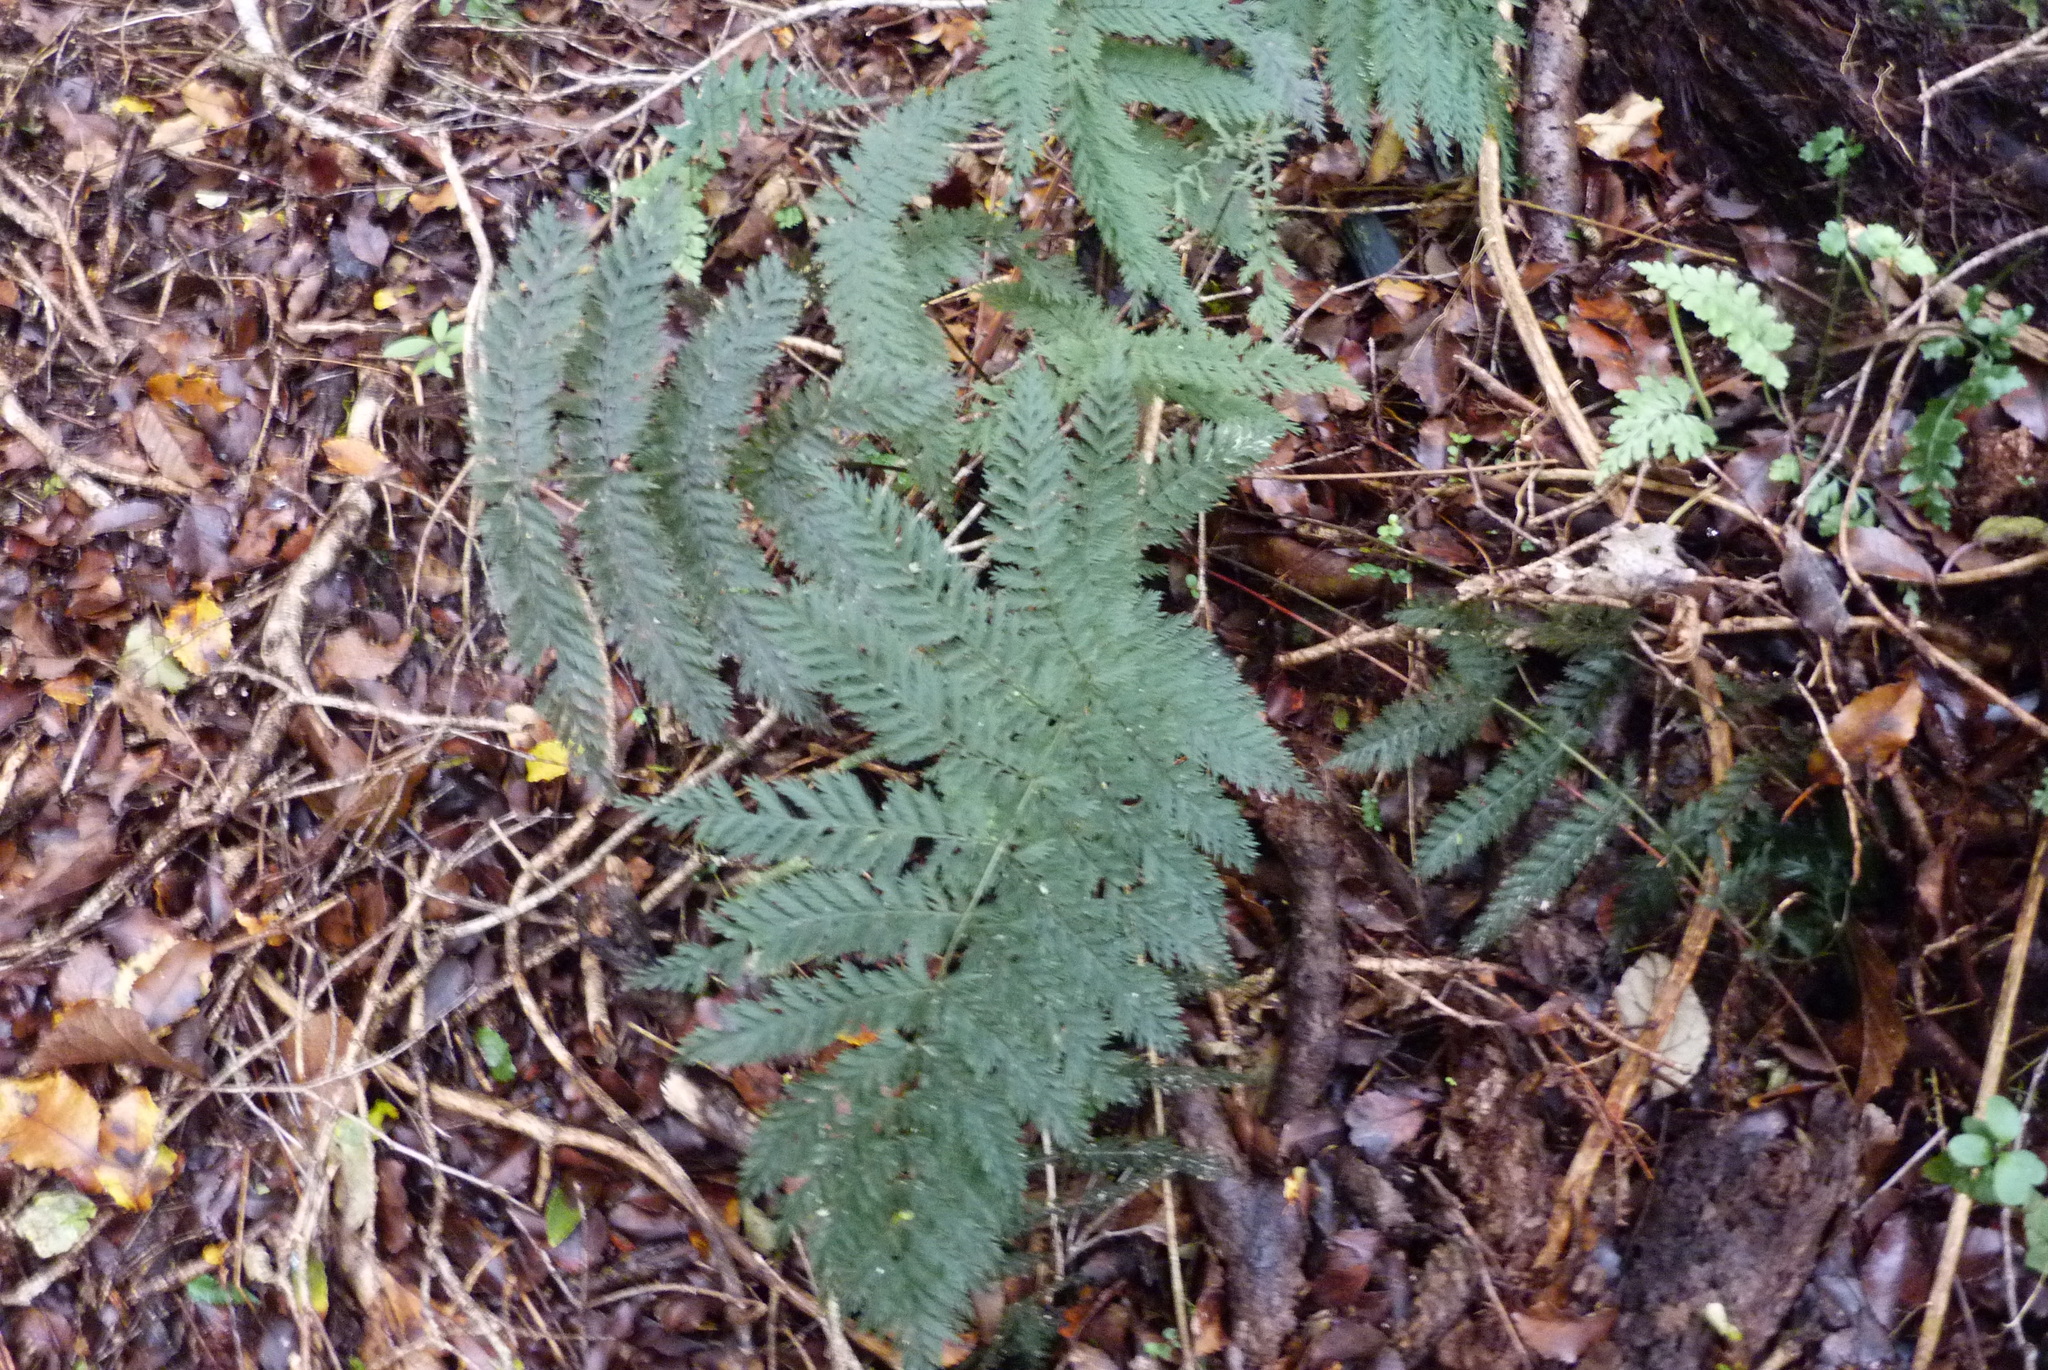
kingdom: Plantae
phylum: Tracheophyta
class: Polypodiopsida
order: Osmundales
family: Osmundaceae
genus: Leptopteris
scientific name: Leptopteris hymenophylloides
